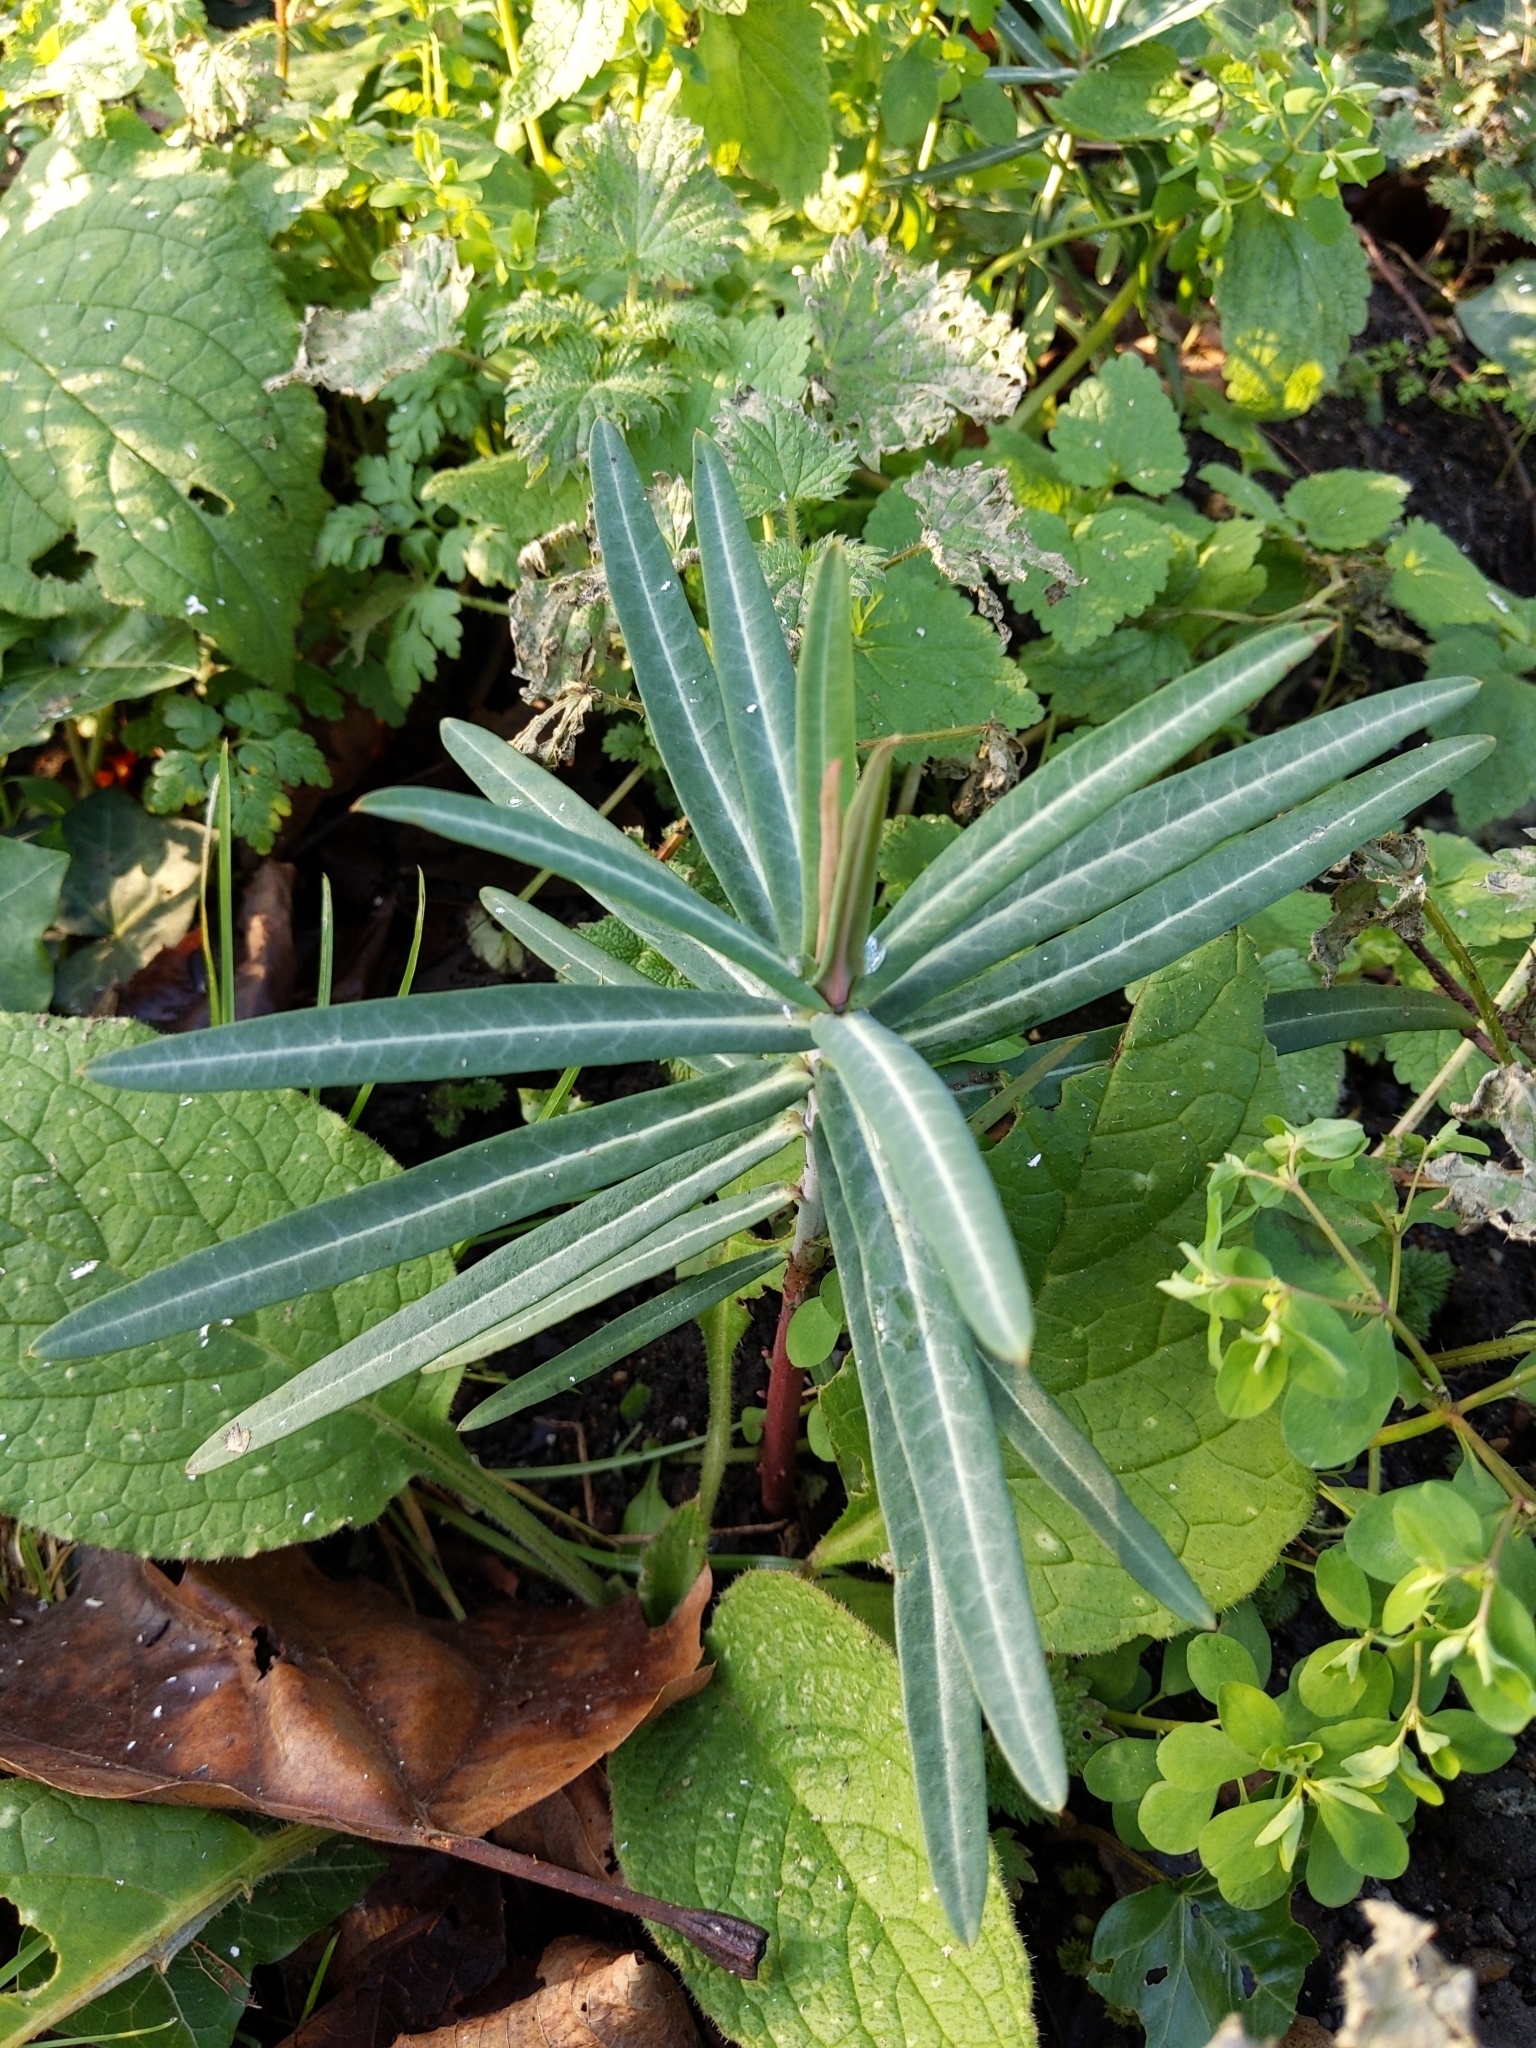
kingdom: Plantae
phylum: Tracheophyta
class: Magnoliopsida
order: Malpighiales
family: Euphorbiaceae
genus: Euphorbia
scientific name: Euphorbia lathyris
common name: Caper spurge
